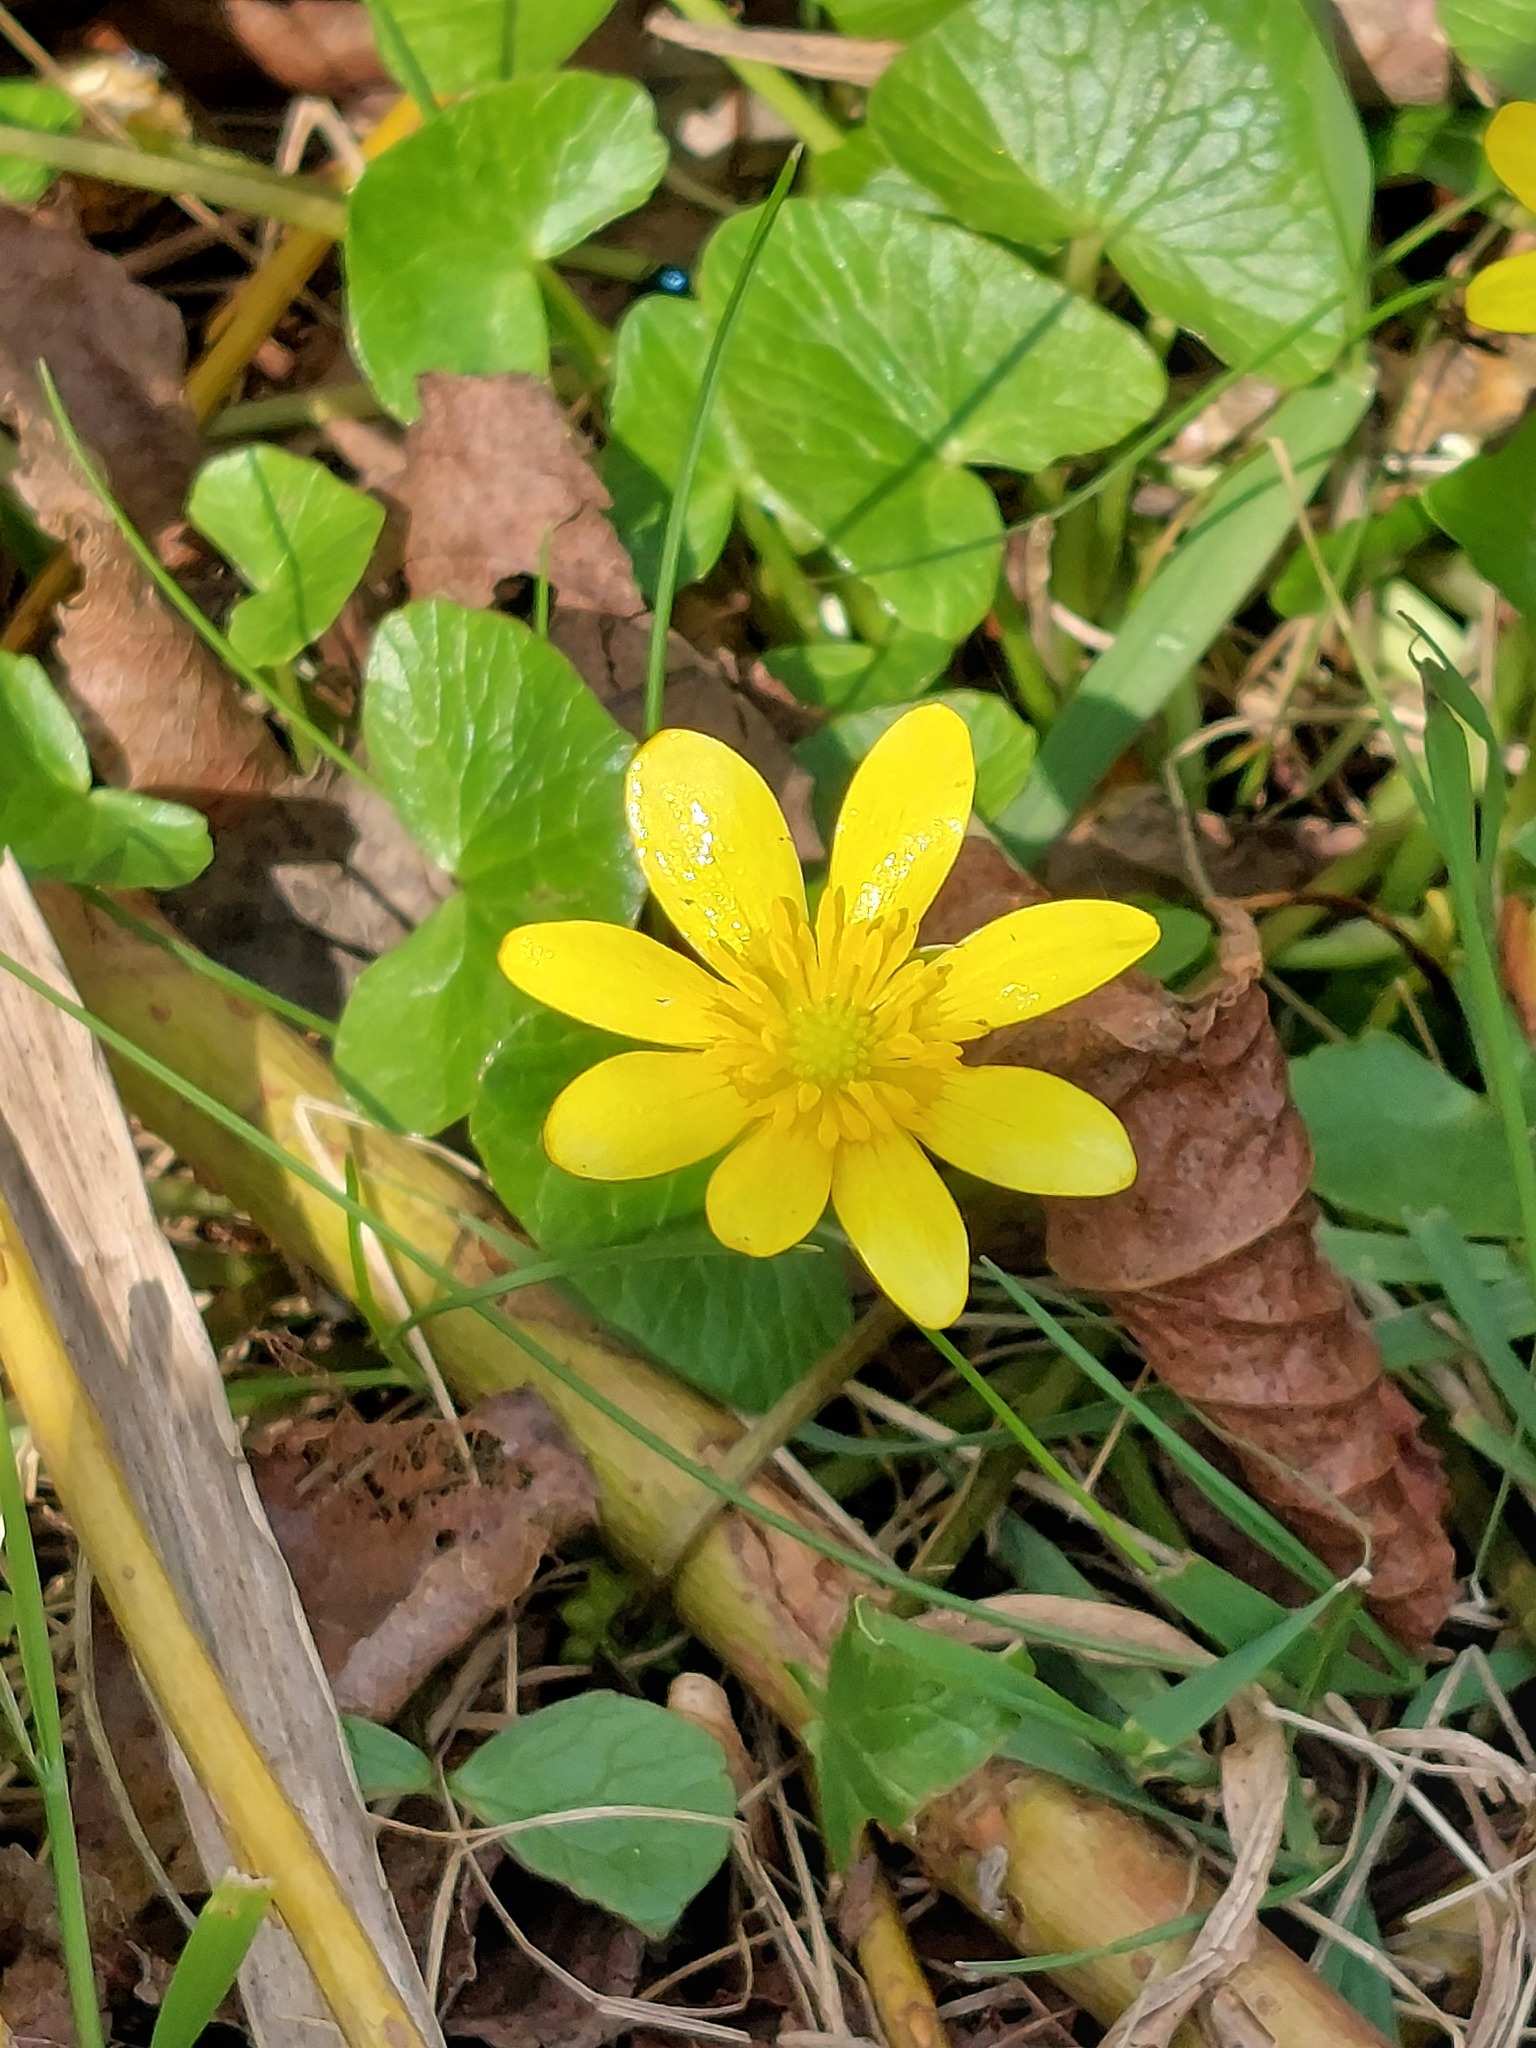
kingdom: Plantae
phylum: Tracheophyta
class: Magnoliopsida
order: Ranunculales
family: Ranunculaceae
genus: Ficaria
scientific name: Ficaria verna
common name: Lesser celandine
